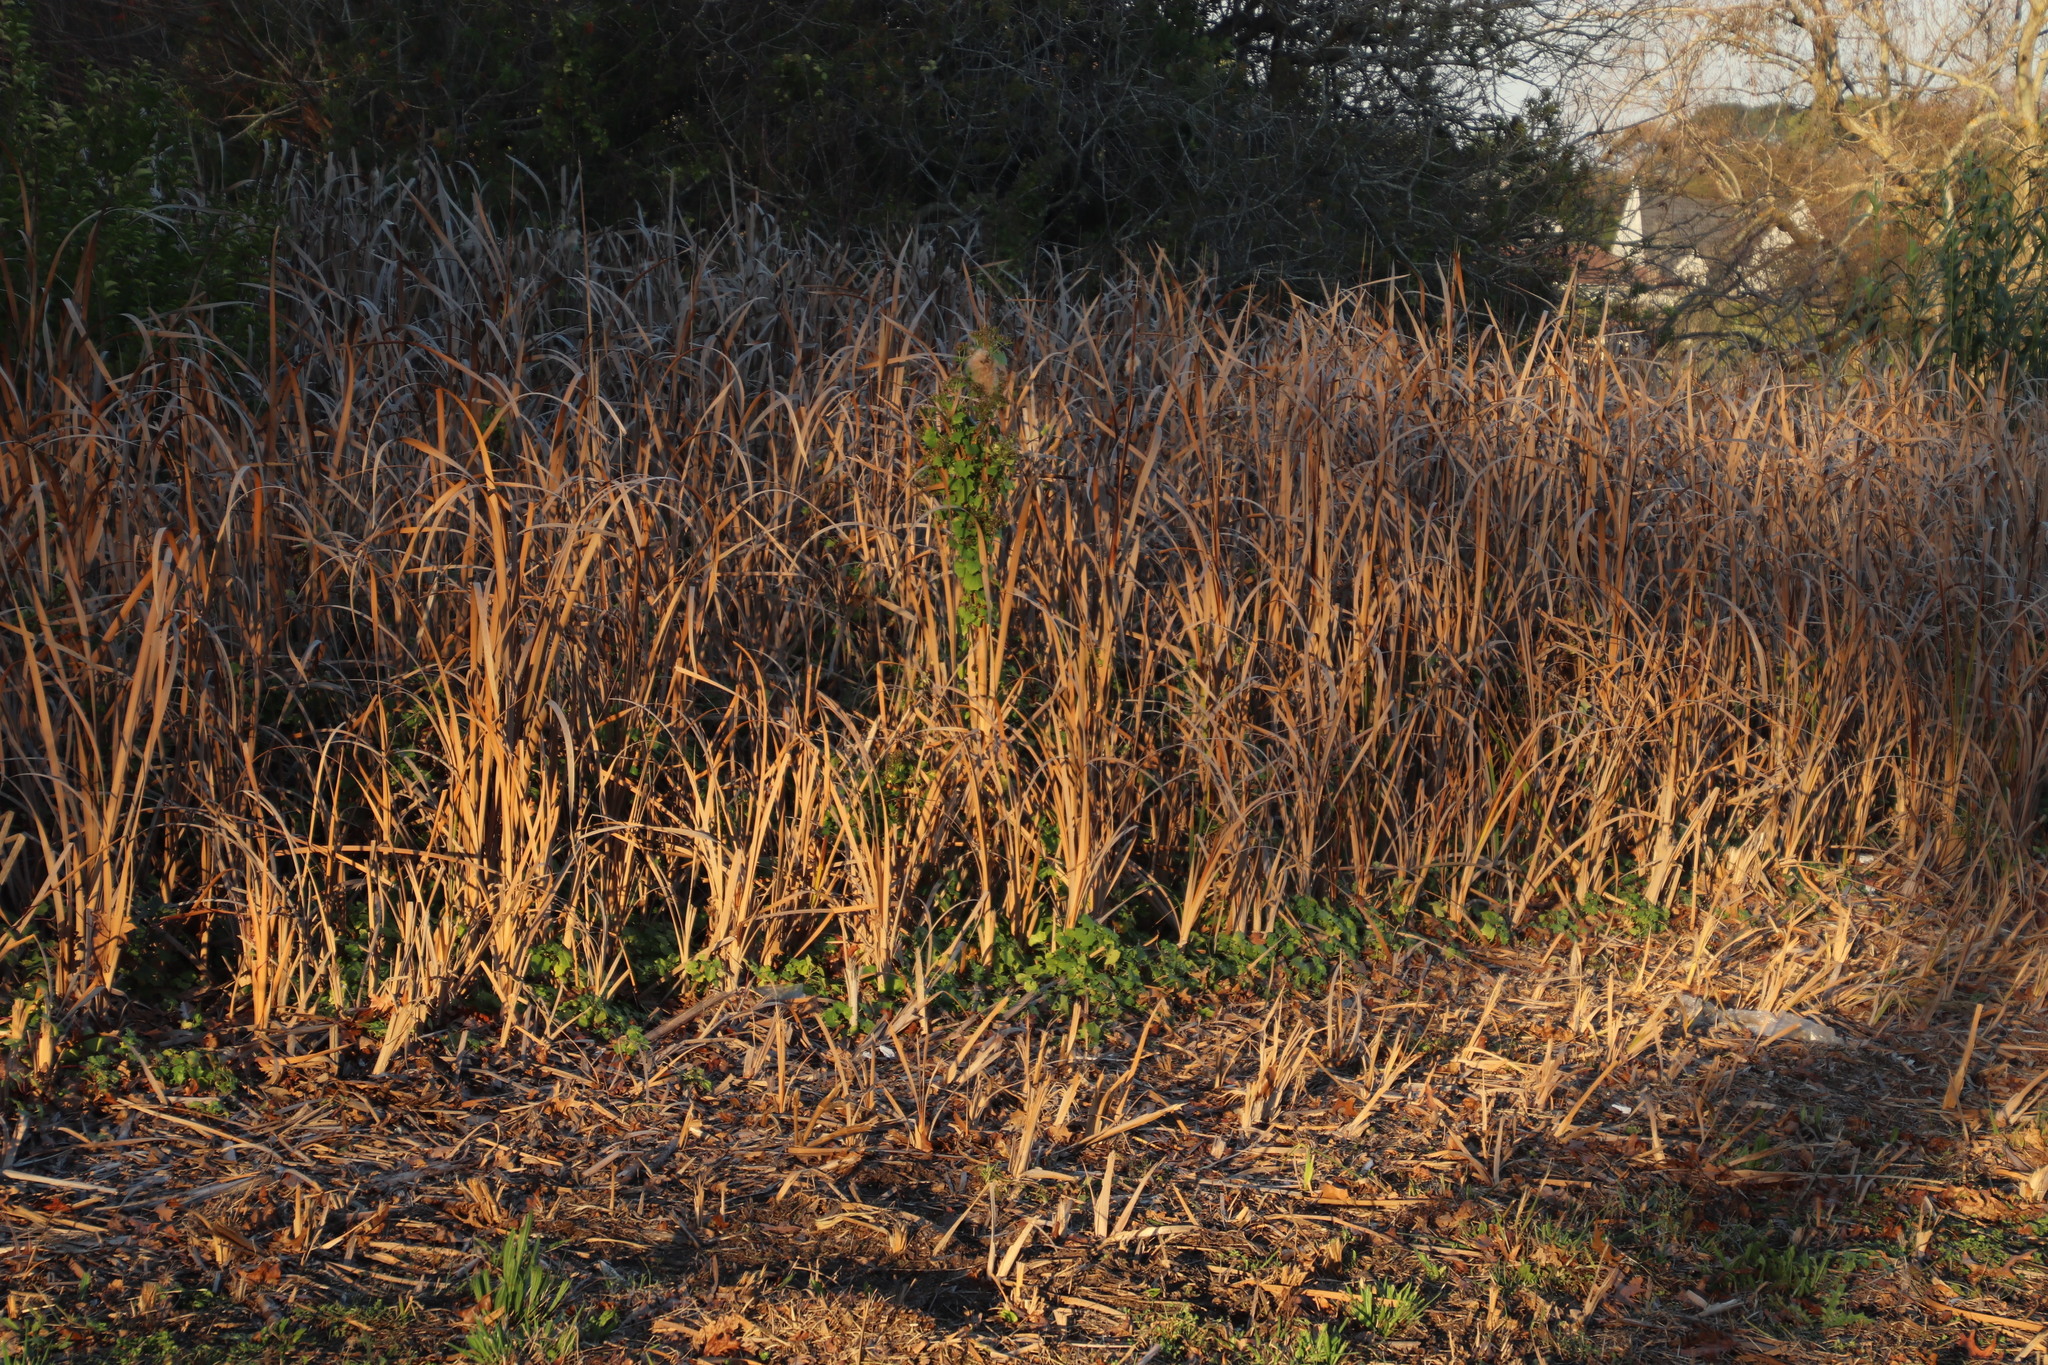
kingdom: Plantae
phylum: Tracheophyta
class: Liliopsida
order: Poales
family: Typhaceae
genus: Typha
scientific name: Typha capensis
